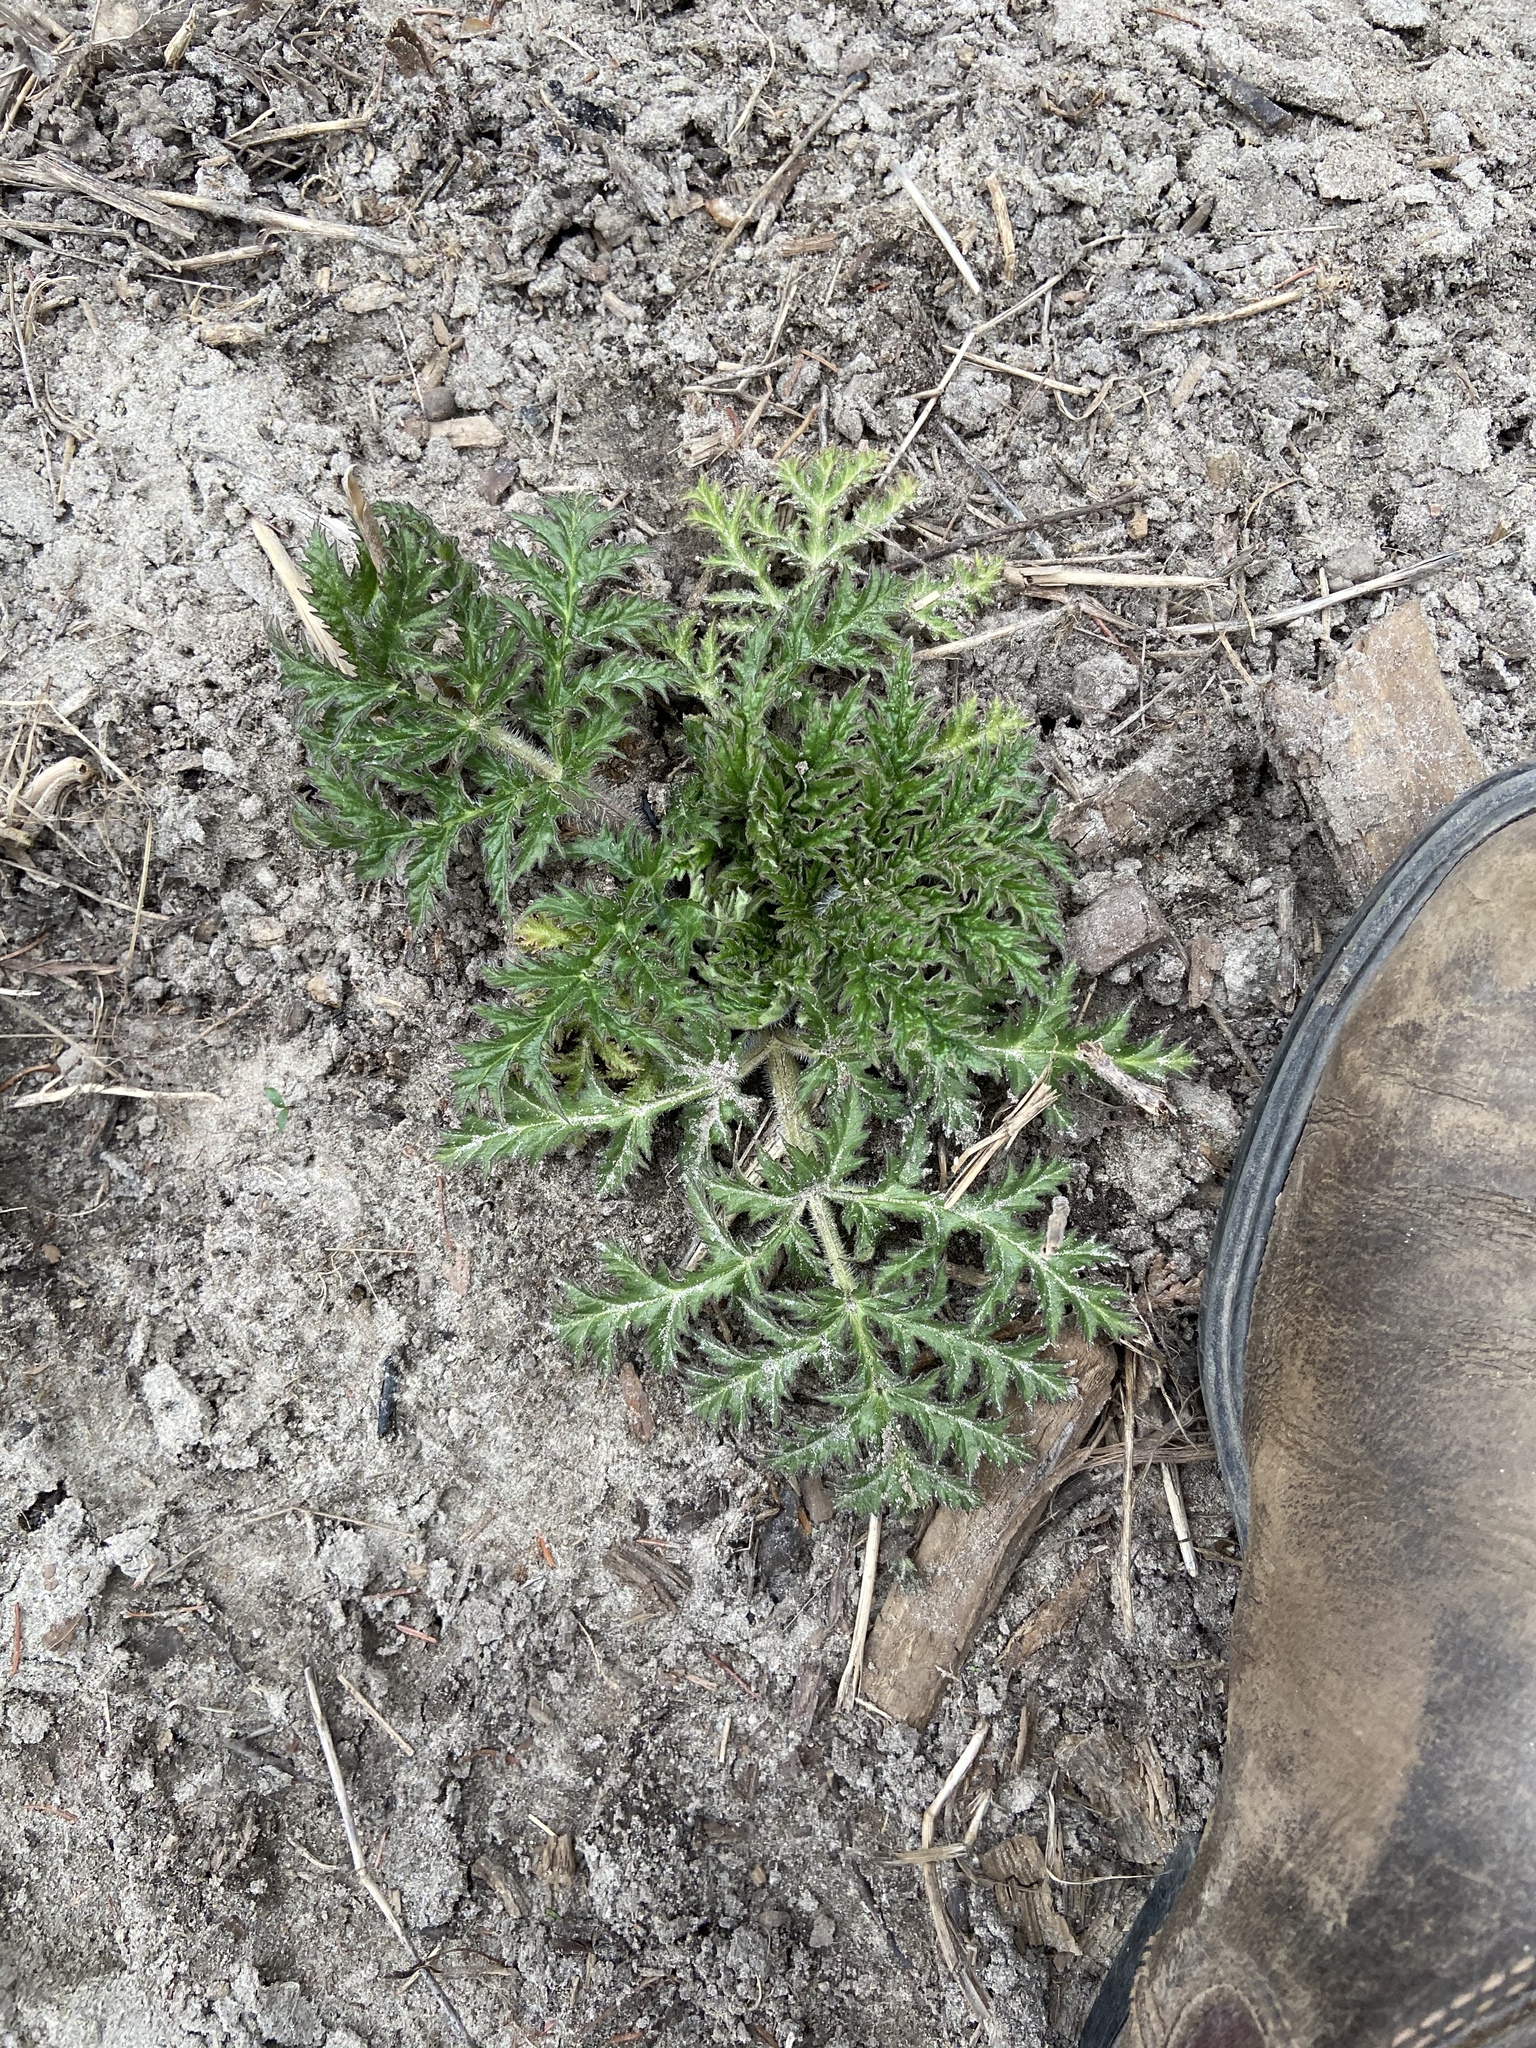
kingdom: Plantae
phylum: Tracheophyta
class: Magnoliopsida
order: Apiales
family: Apiaceae
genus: Heracleum
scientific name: Heracleum mantegazzianum
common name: Giant hogweed
